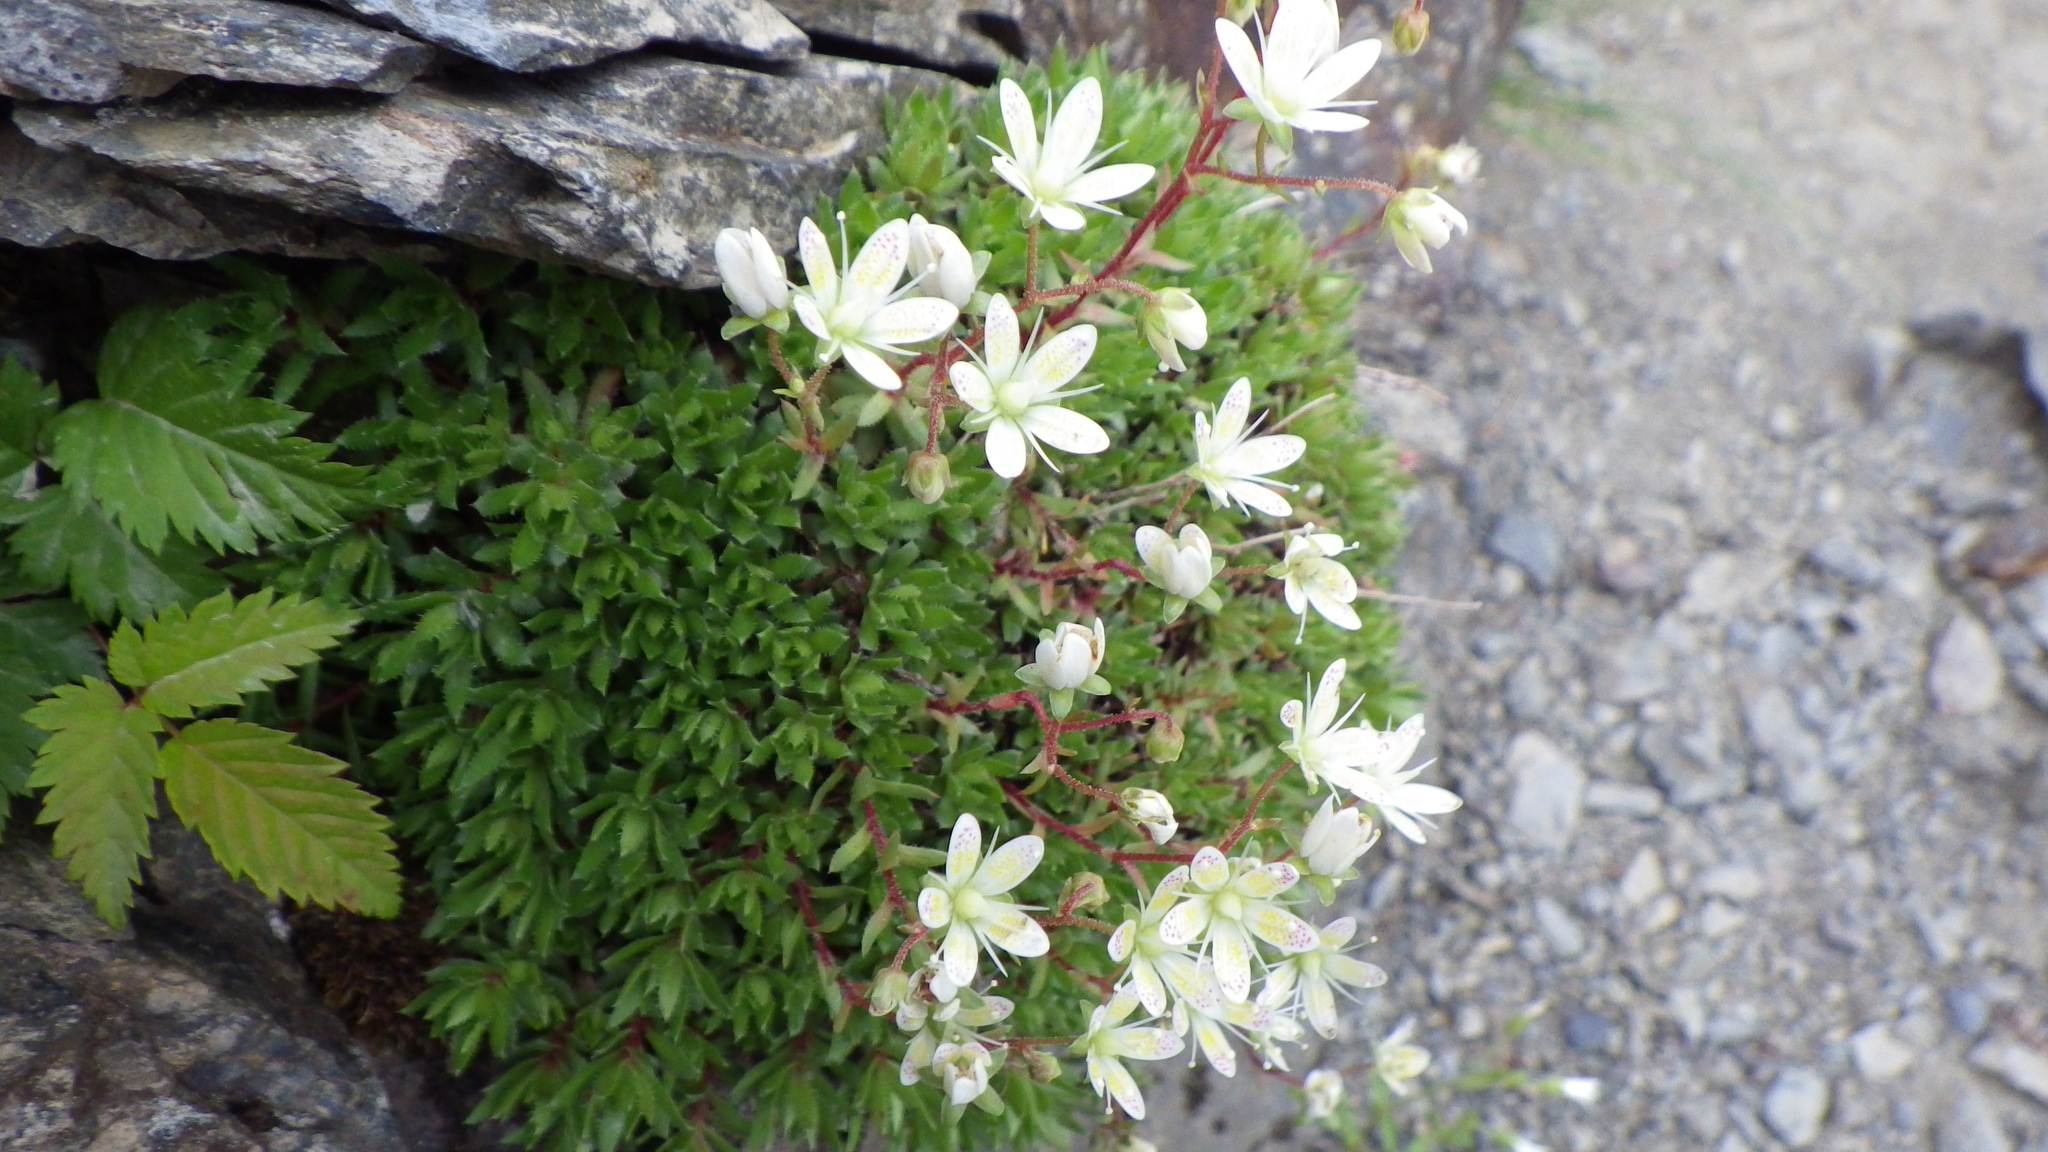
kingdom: Plantae
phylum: Tracheophyta
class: Magnoliopsida
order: Saxifragales
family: Saxifragaceae
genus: Saxifraga
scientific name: Saxifraga bronchialis
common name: Matted saxifrage
